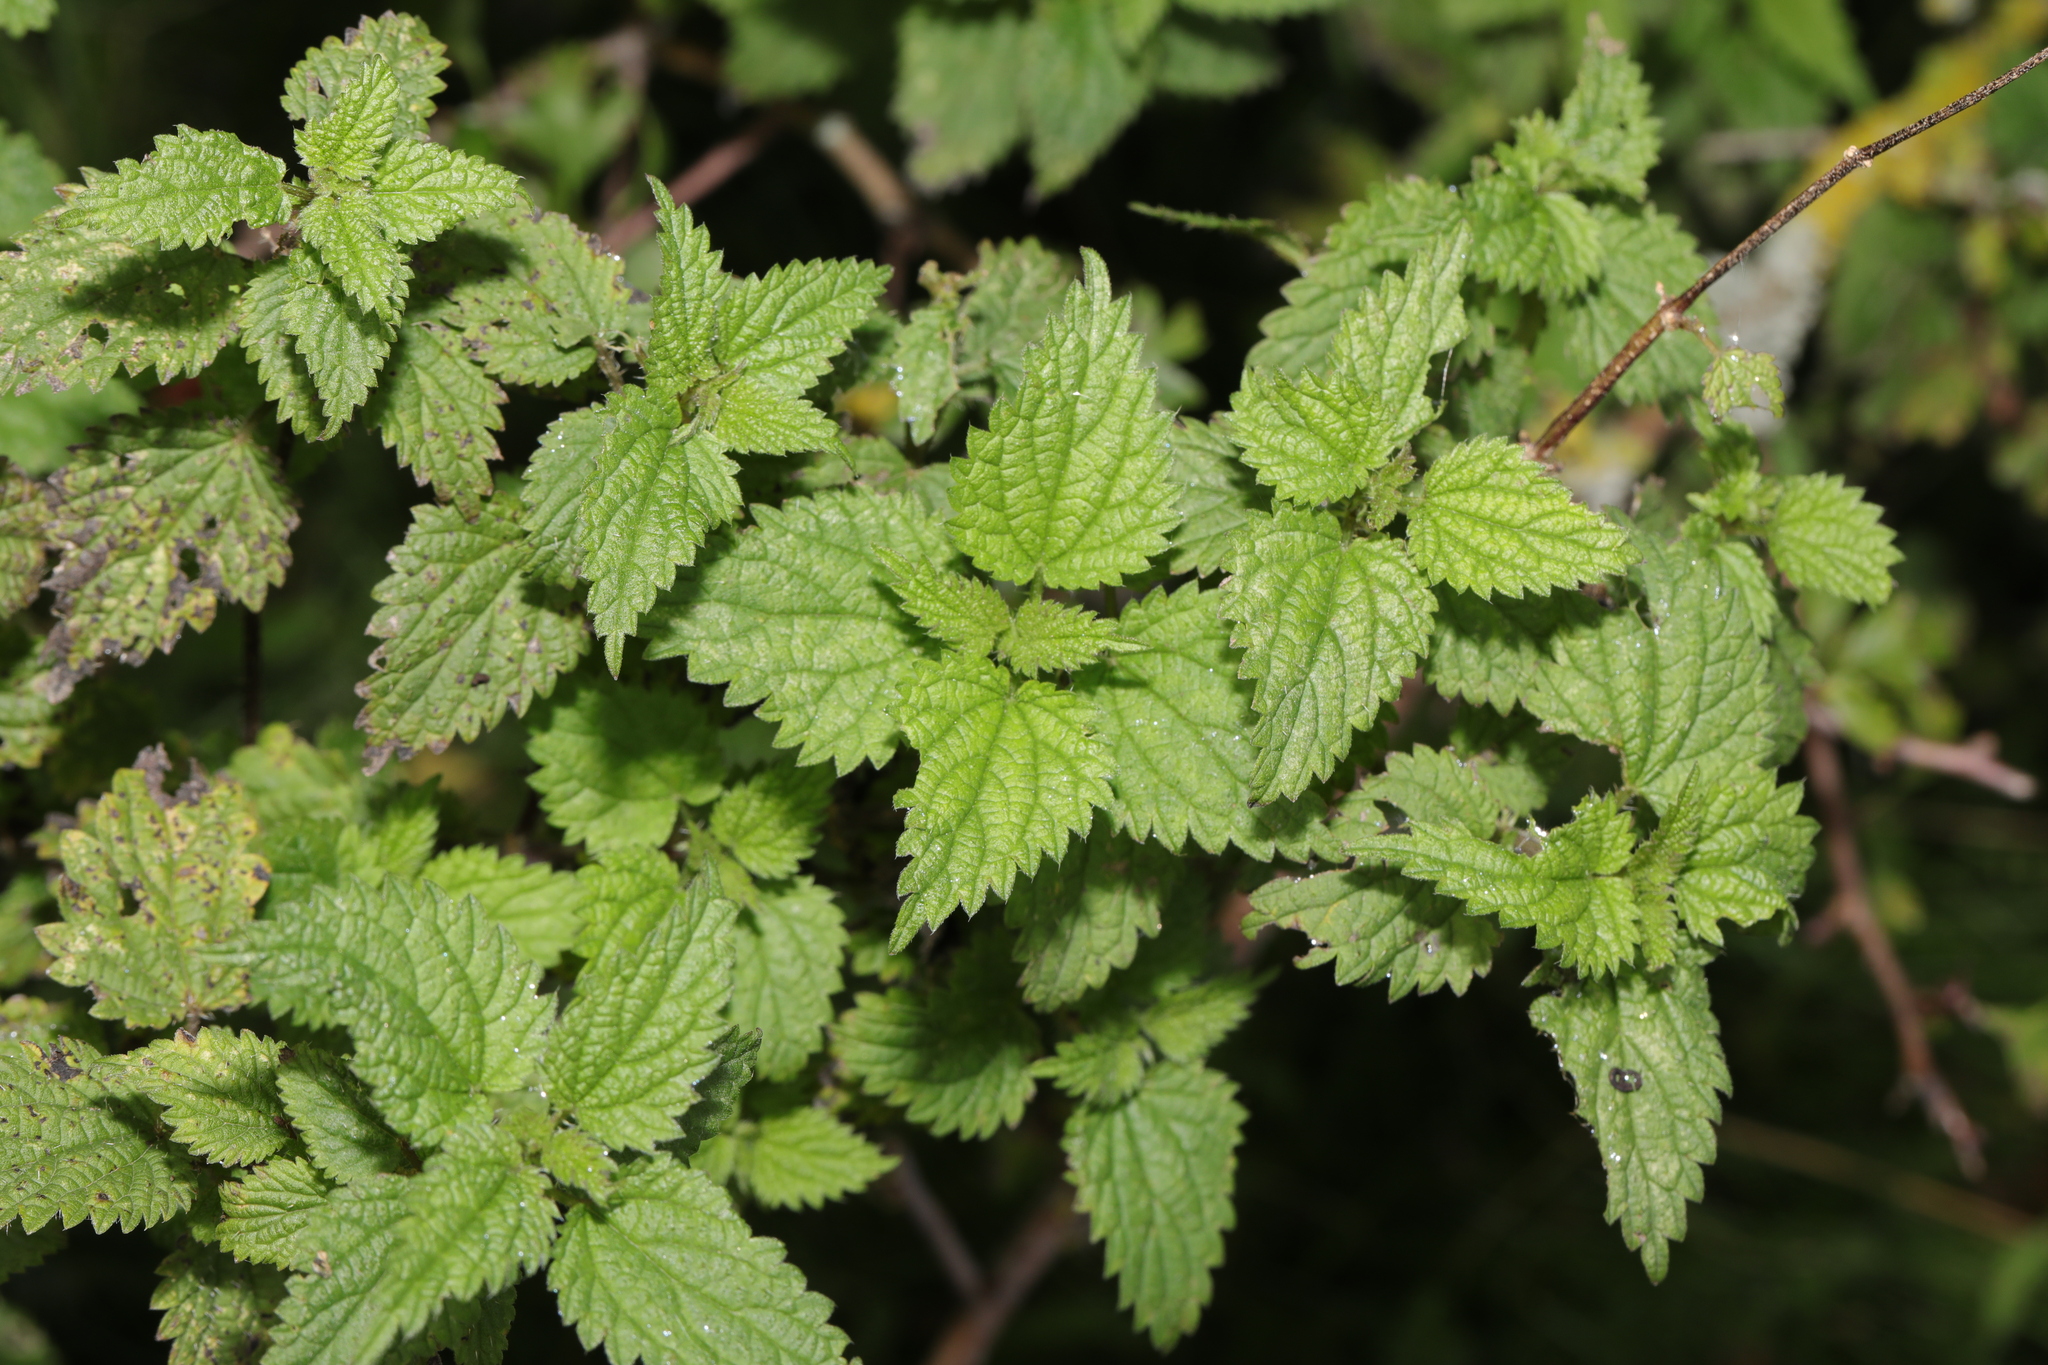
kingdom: Plantae
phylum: Tracheophyta
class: Magnoliopsida
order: Rosales
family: Urticaceae
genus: Urtica
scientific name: Urtica dioica
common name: Common nettle
